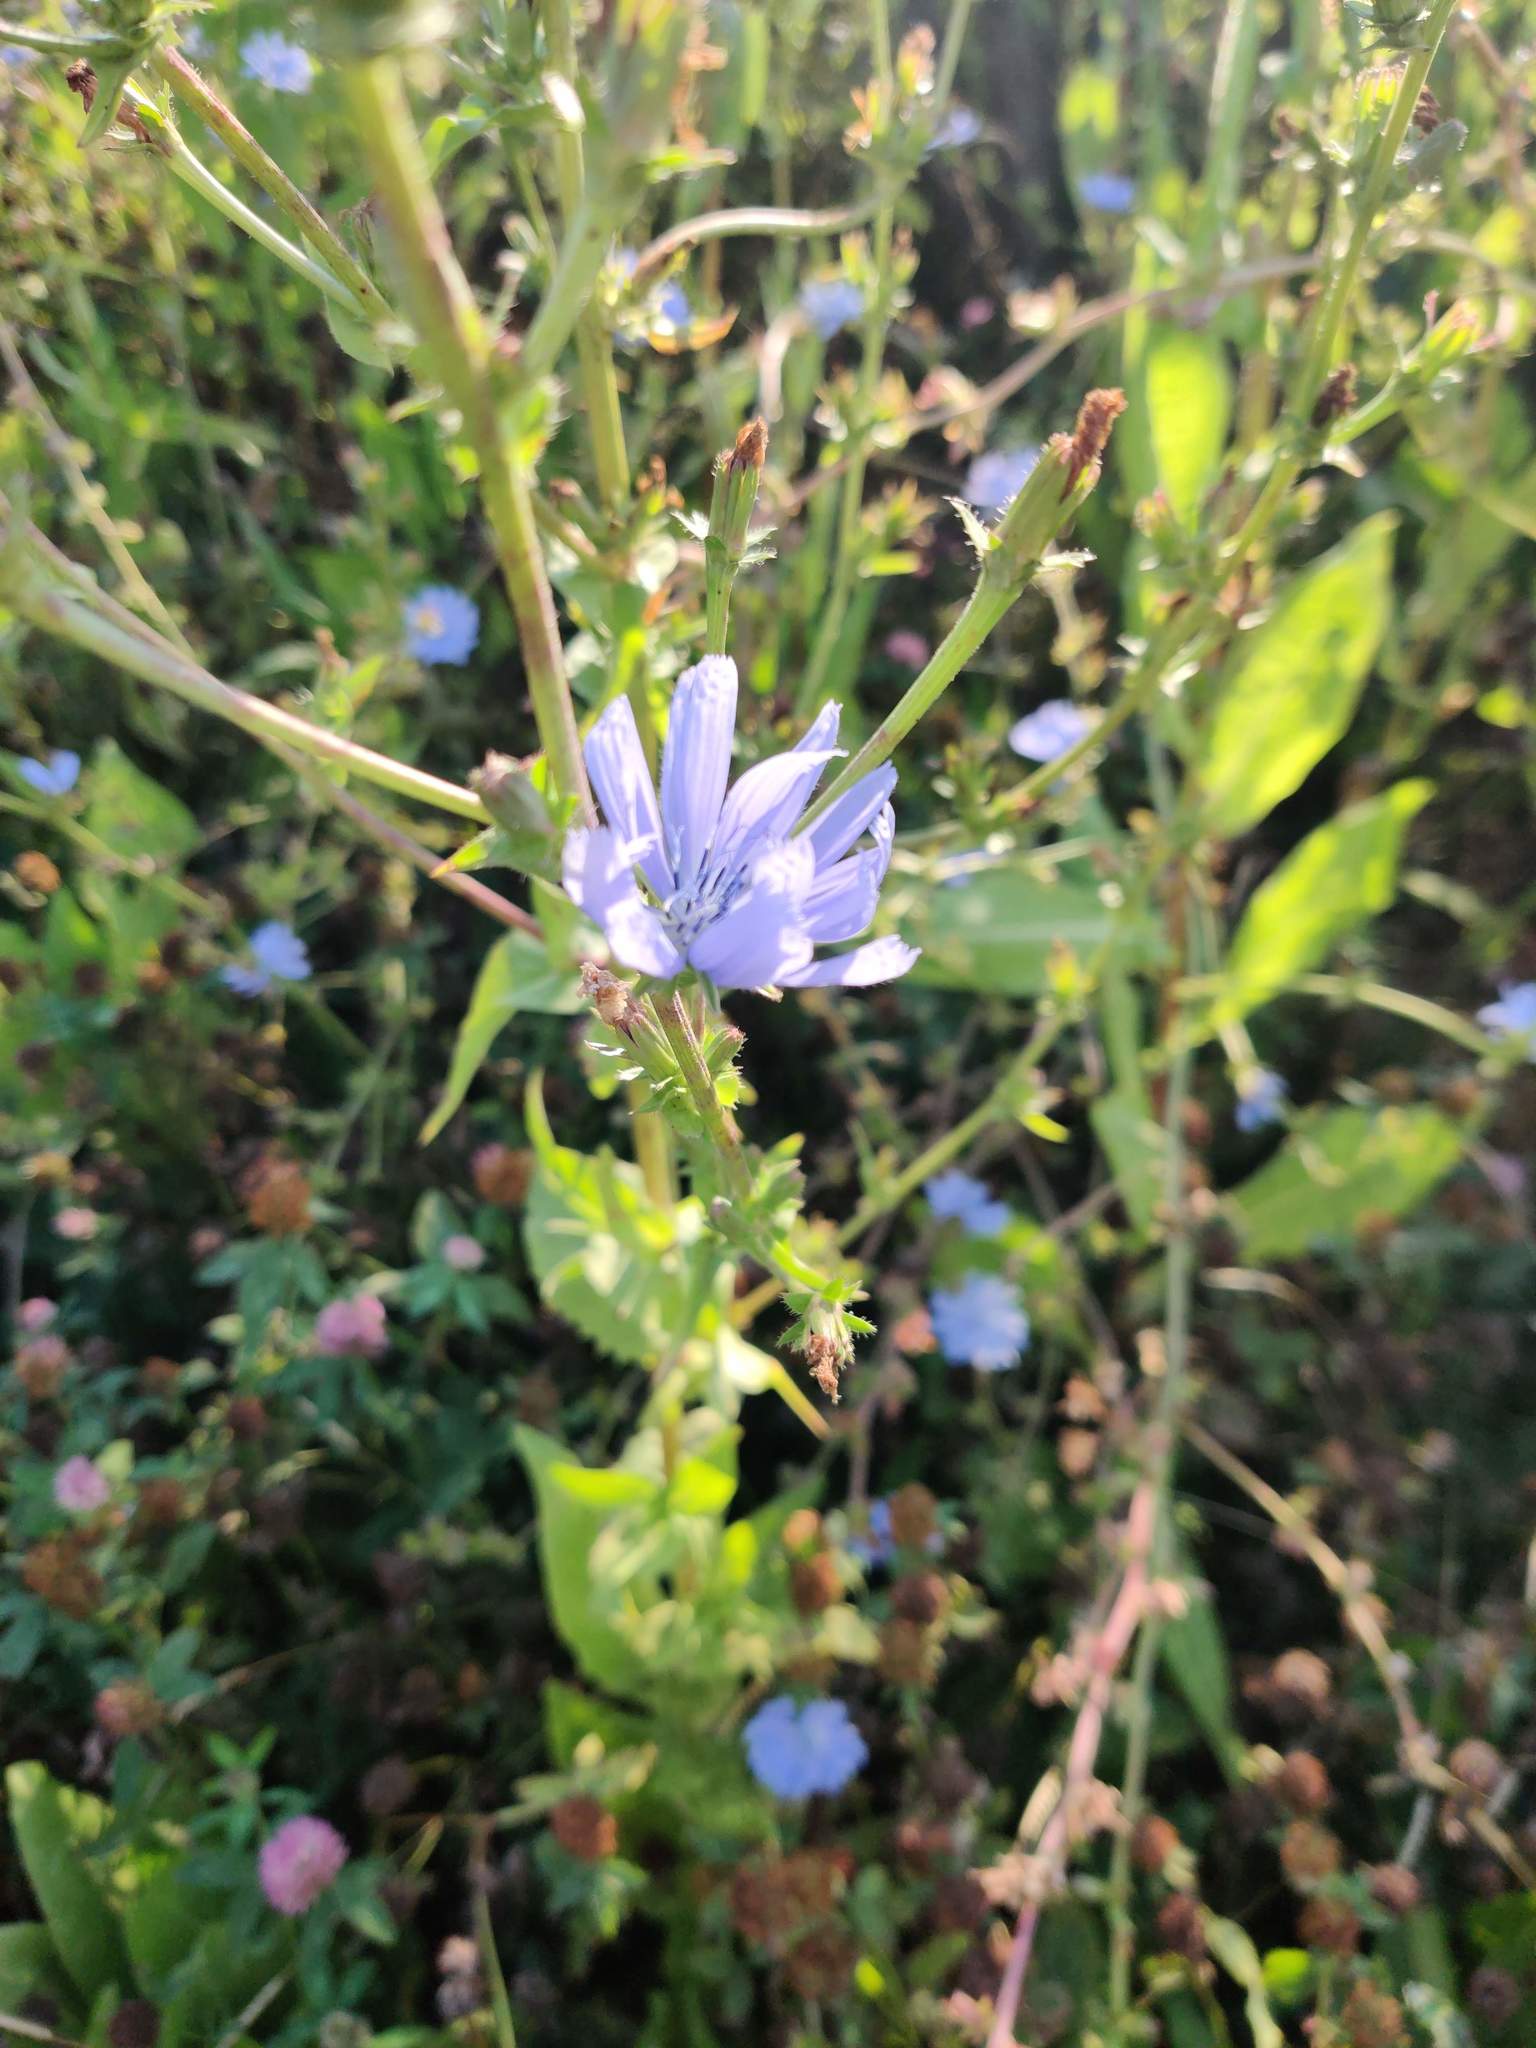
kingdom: Plantae
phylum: Tracheophyta
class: Magnoliopsida
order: Asterales
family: Asteraceae
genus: Cichorium
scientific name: Cichorium intybus
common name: Chicory
